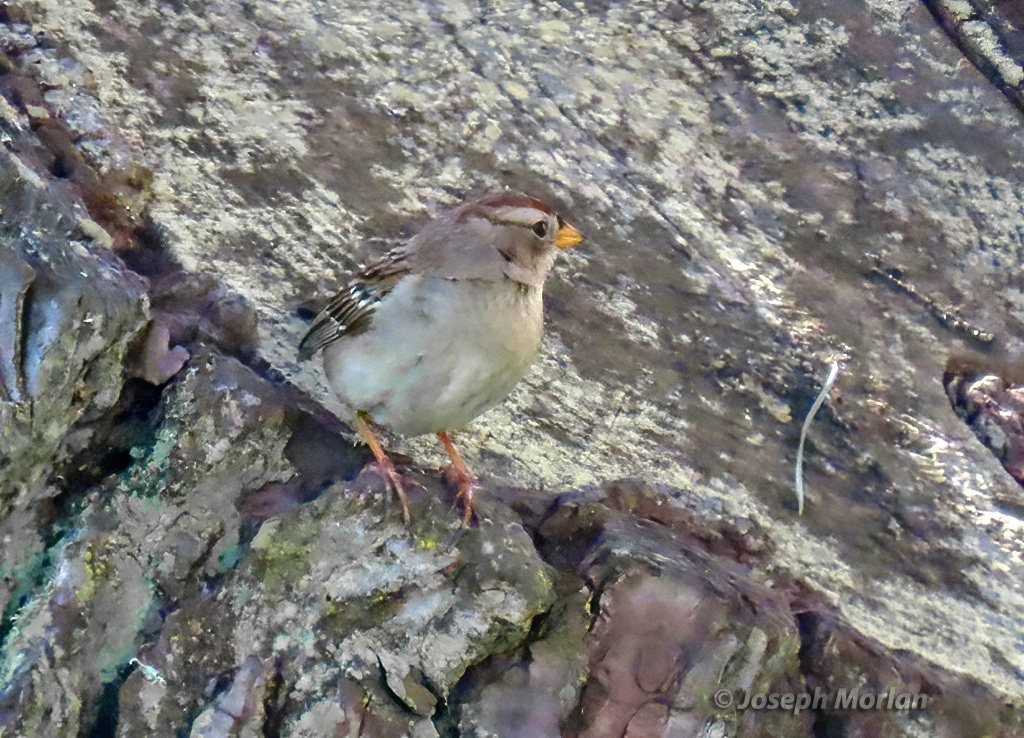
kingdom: Animalia
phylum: Chordata
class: Aves
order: Passeriformes
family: Passerellidae
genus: Zonotrichia
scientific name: Zonotrichia leucophrys
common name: White-crowned sparrow
